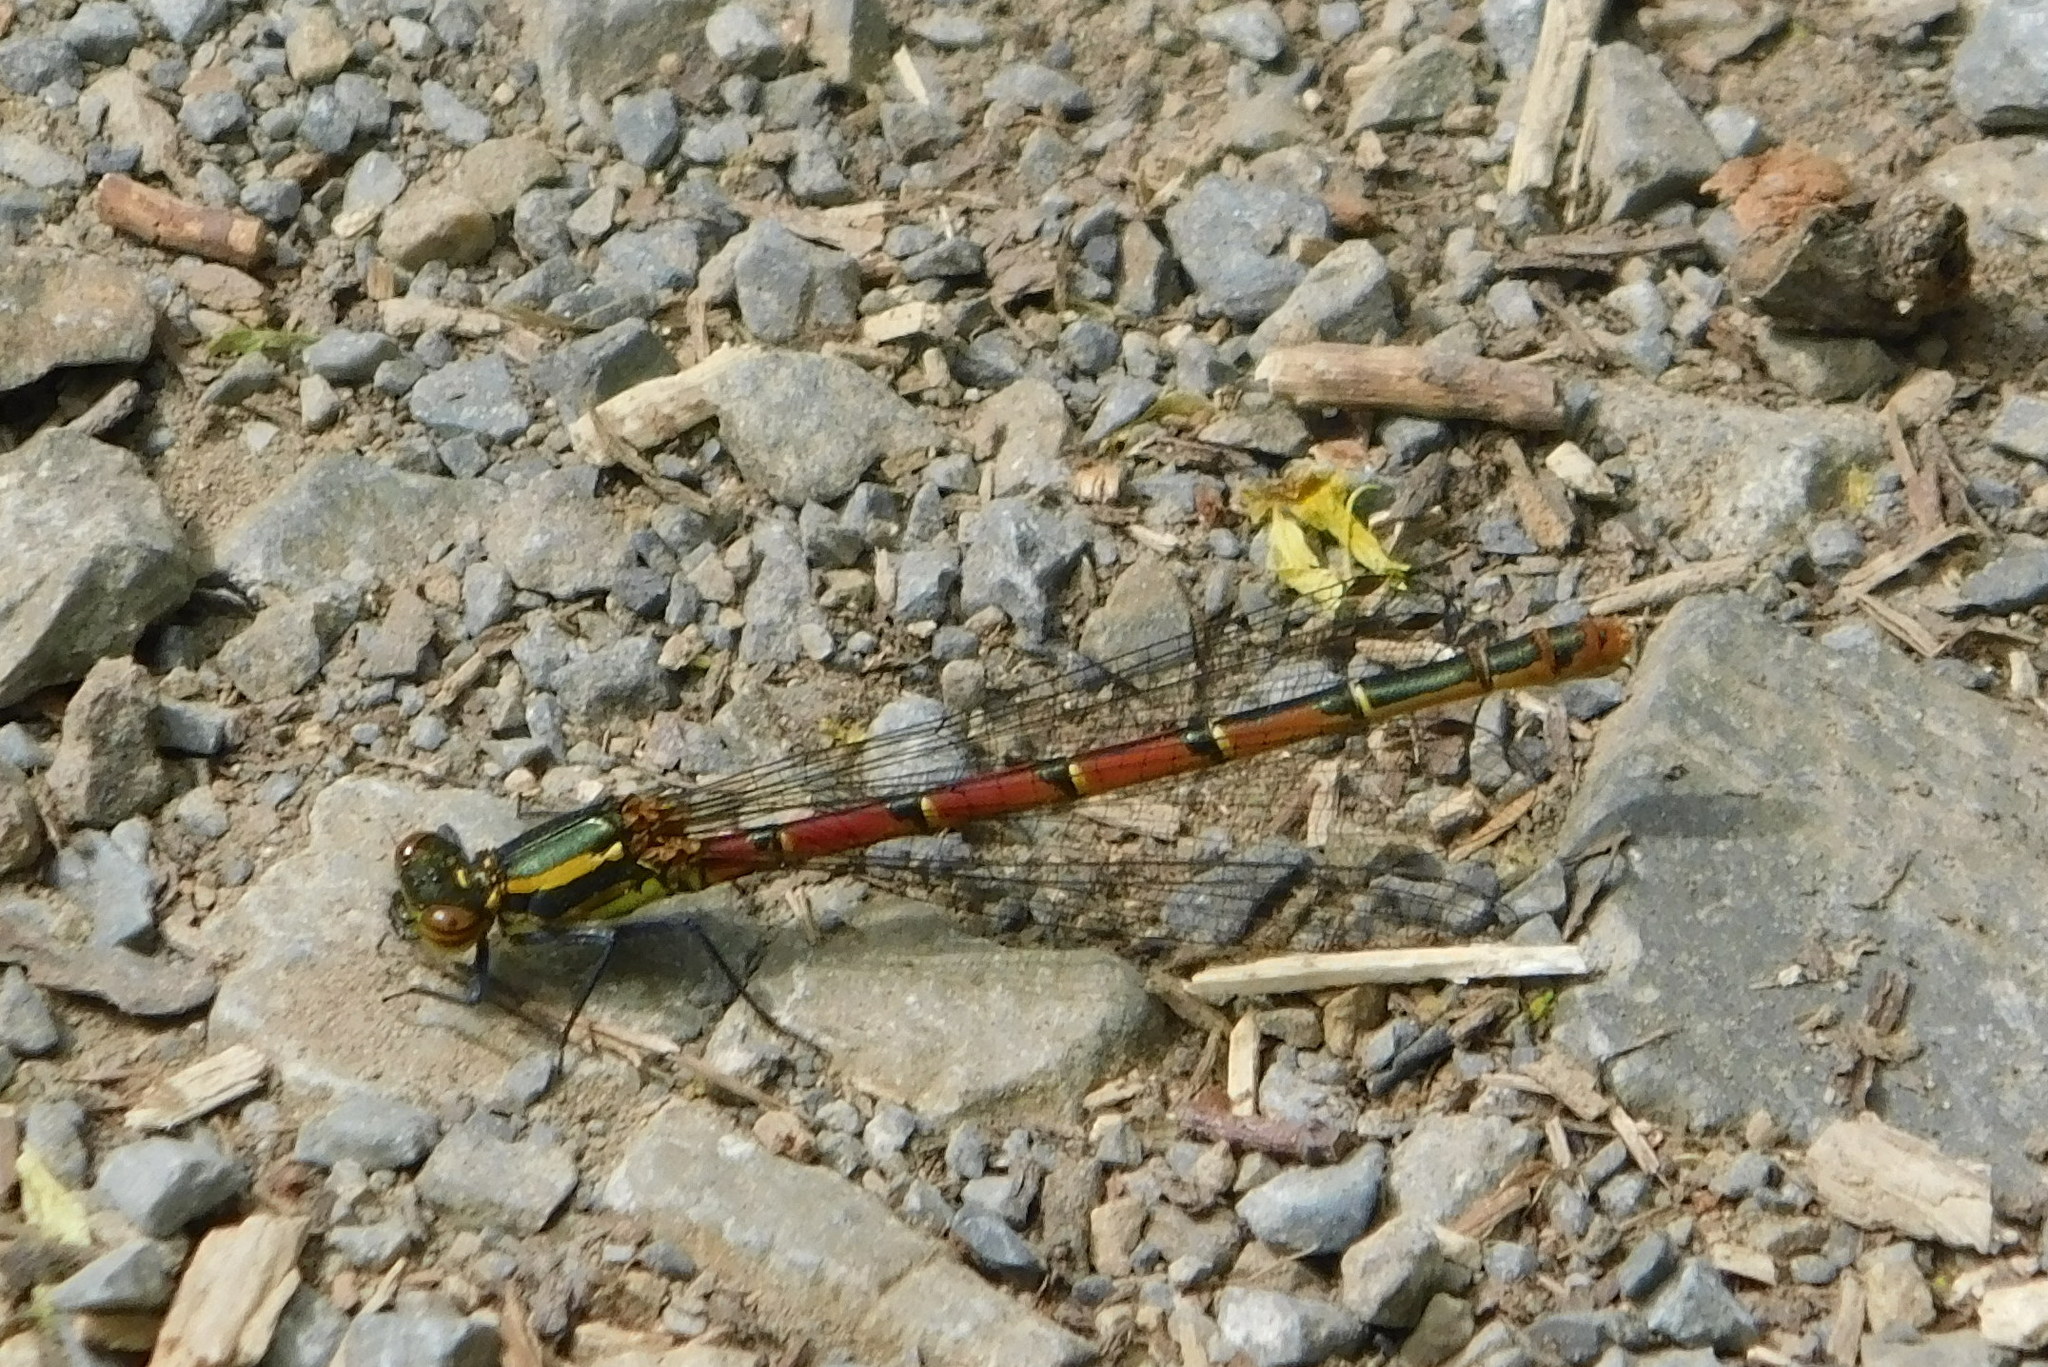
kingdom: Animalia
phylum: Arthropoda
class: Insecta
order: Odonata
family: Coenagrionidae
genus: Pyrrhosoma
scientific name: Pyrrhosoma nymphula
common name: Large red damsel
